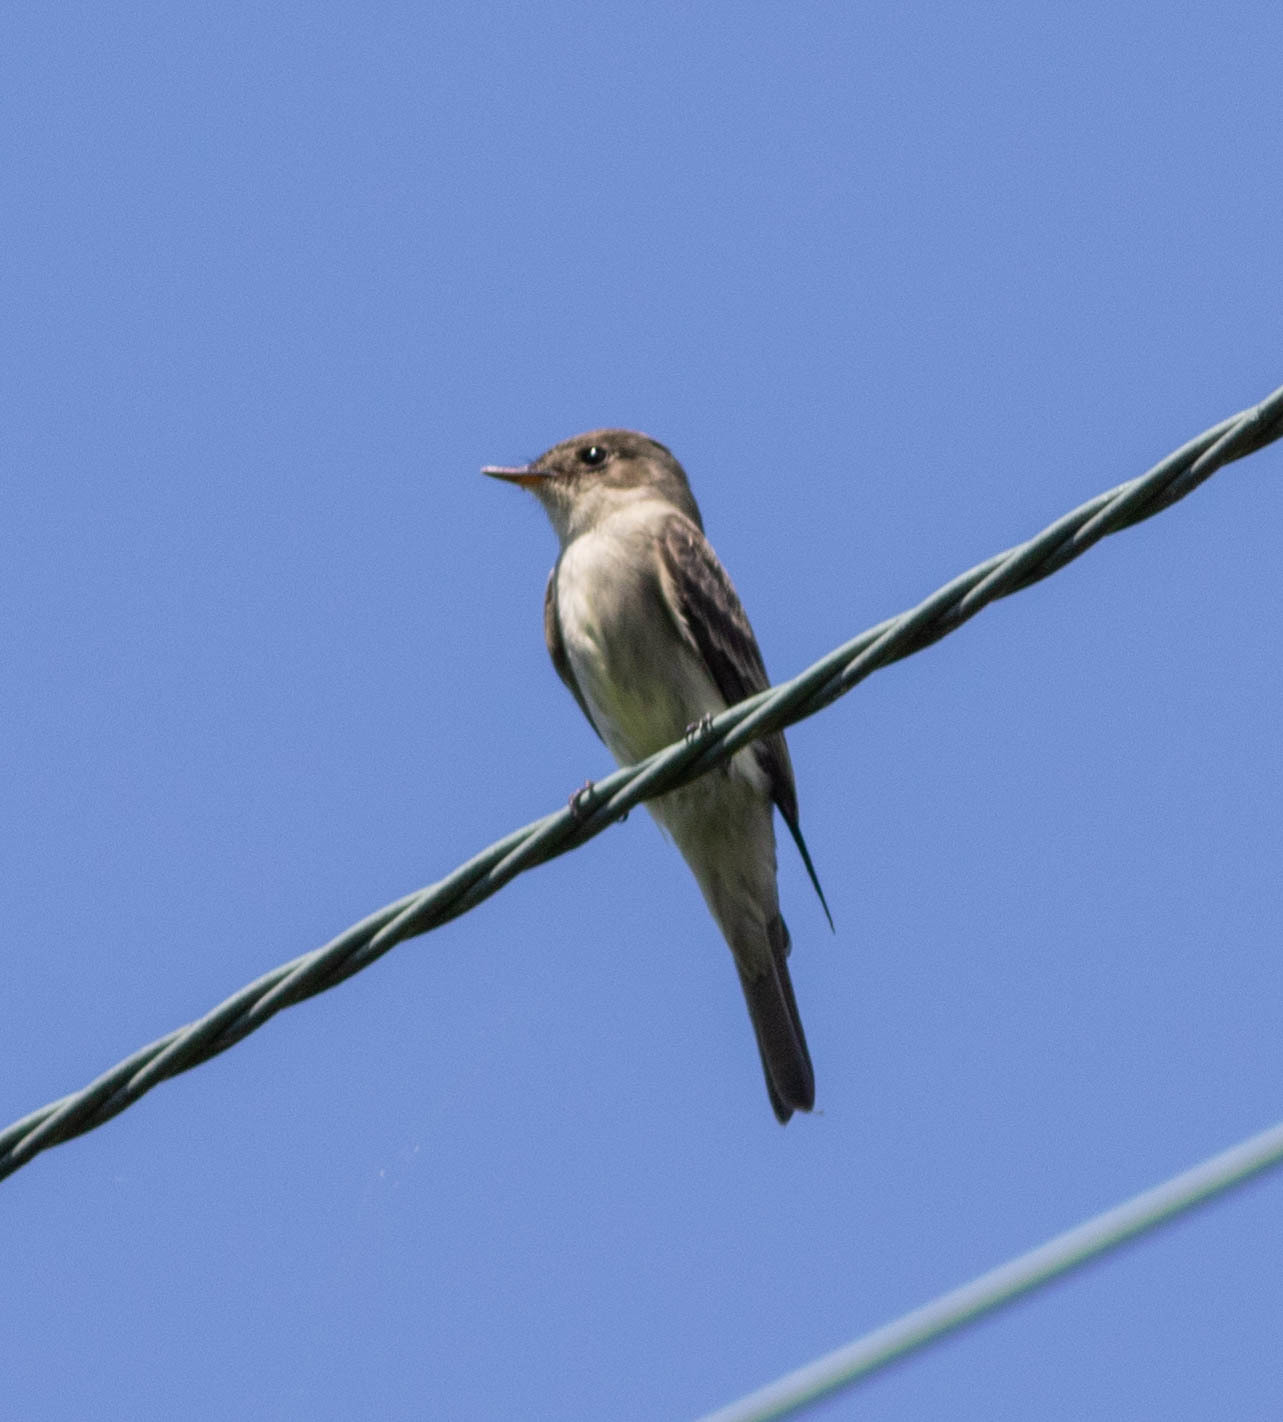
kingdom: Animalia
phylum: Chordata
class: Aves
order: Passeriformes
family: Tyrannidae
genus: Contopus
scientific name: Contopus virens
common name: Eastern wood-pewee
